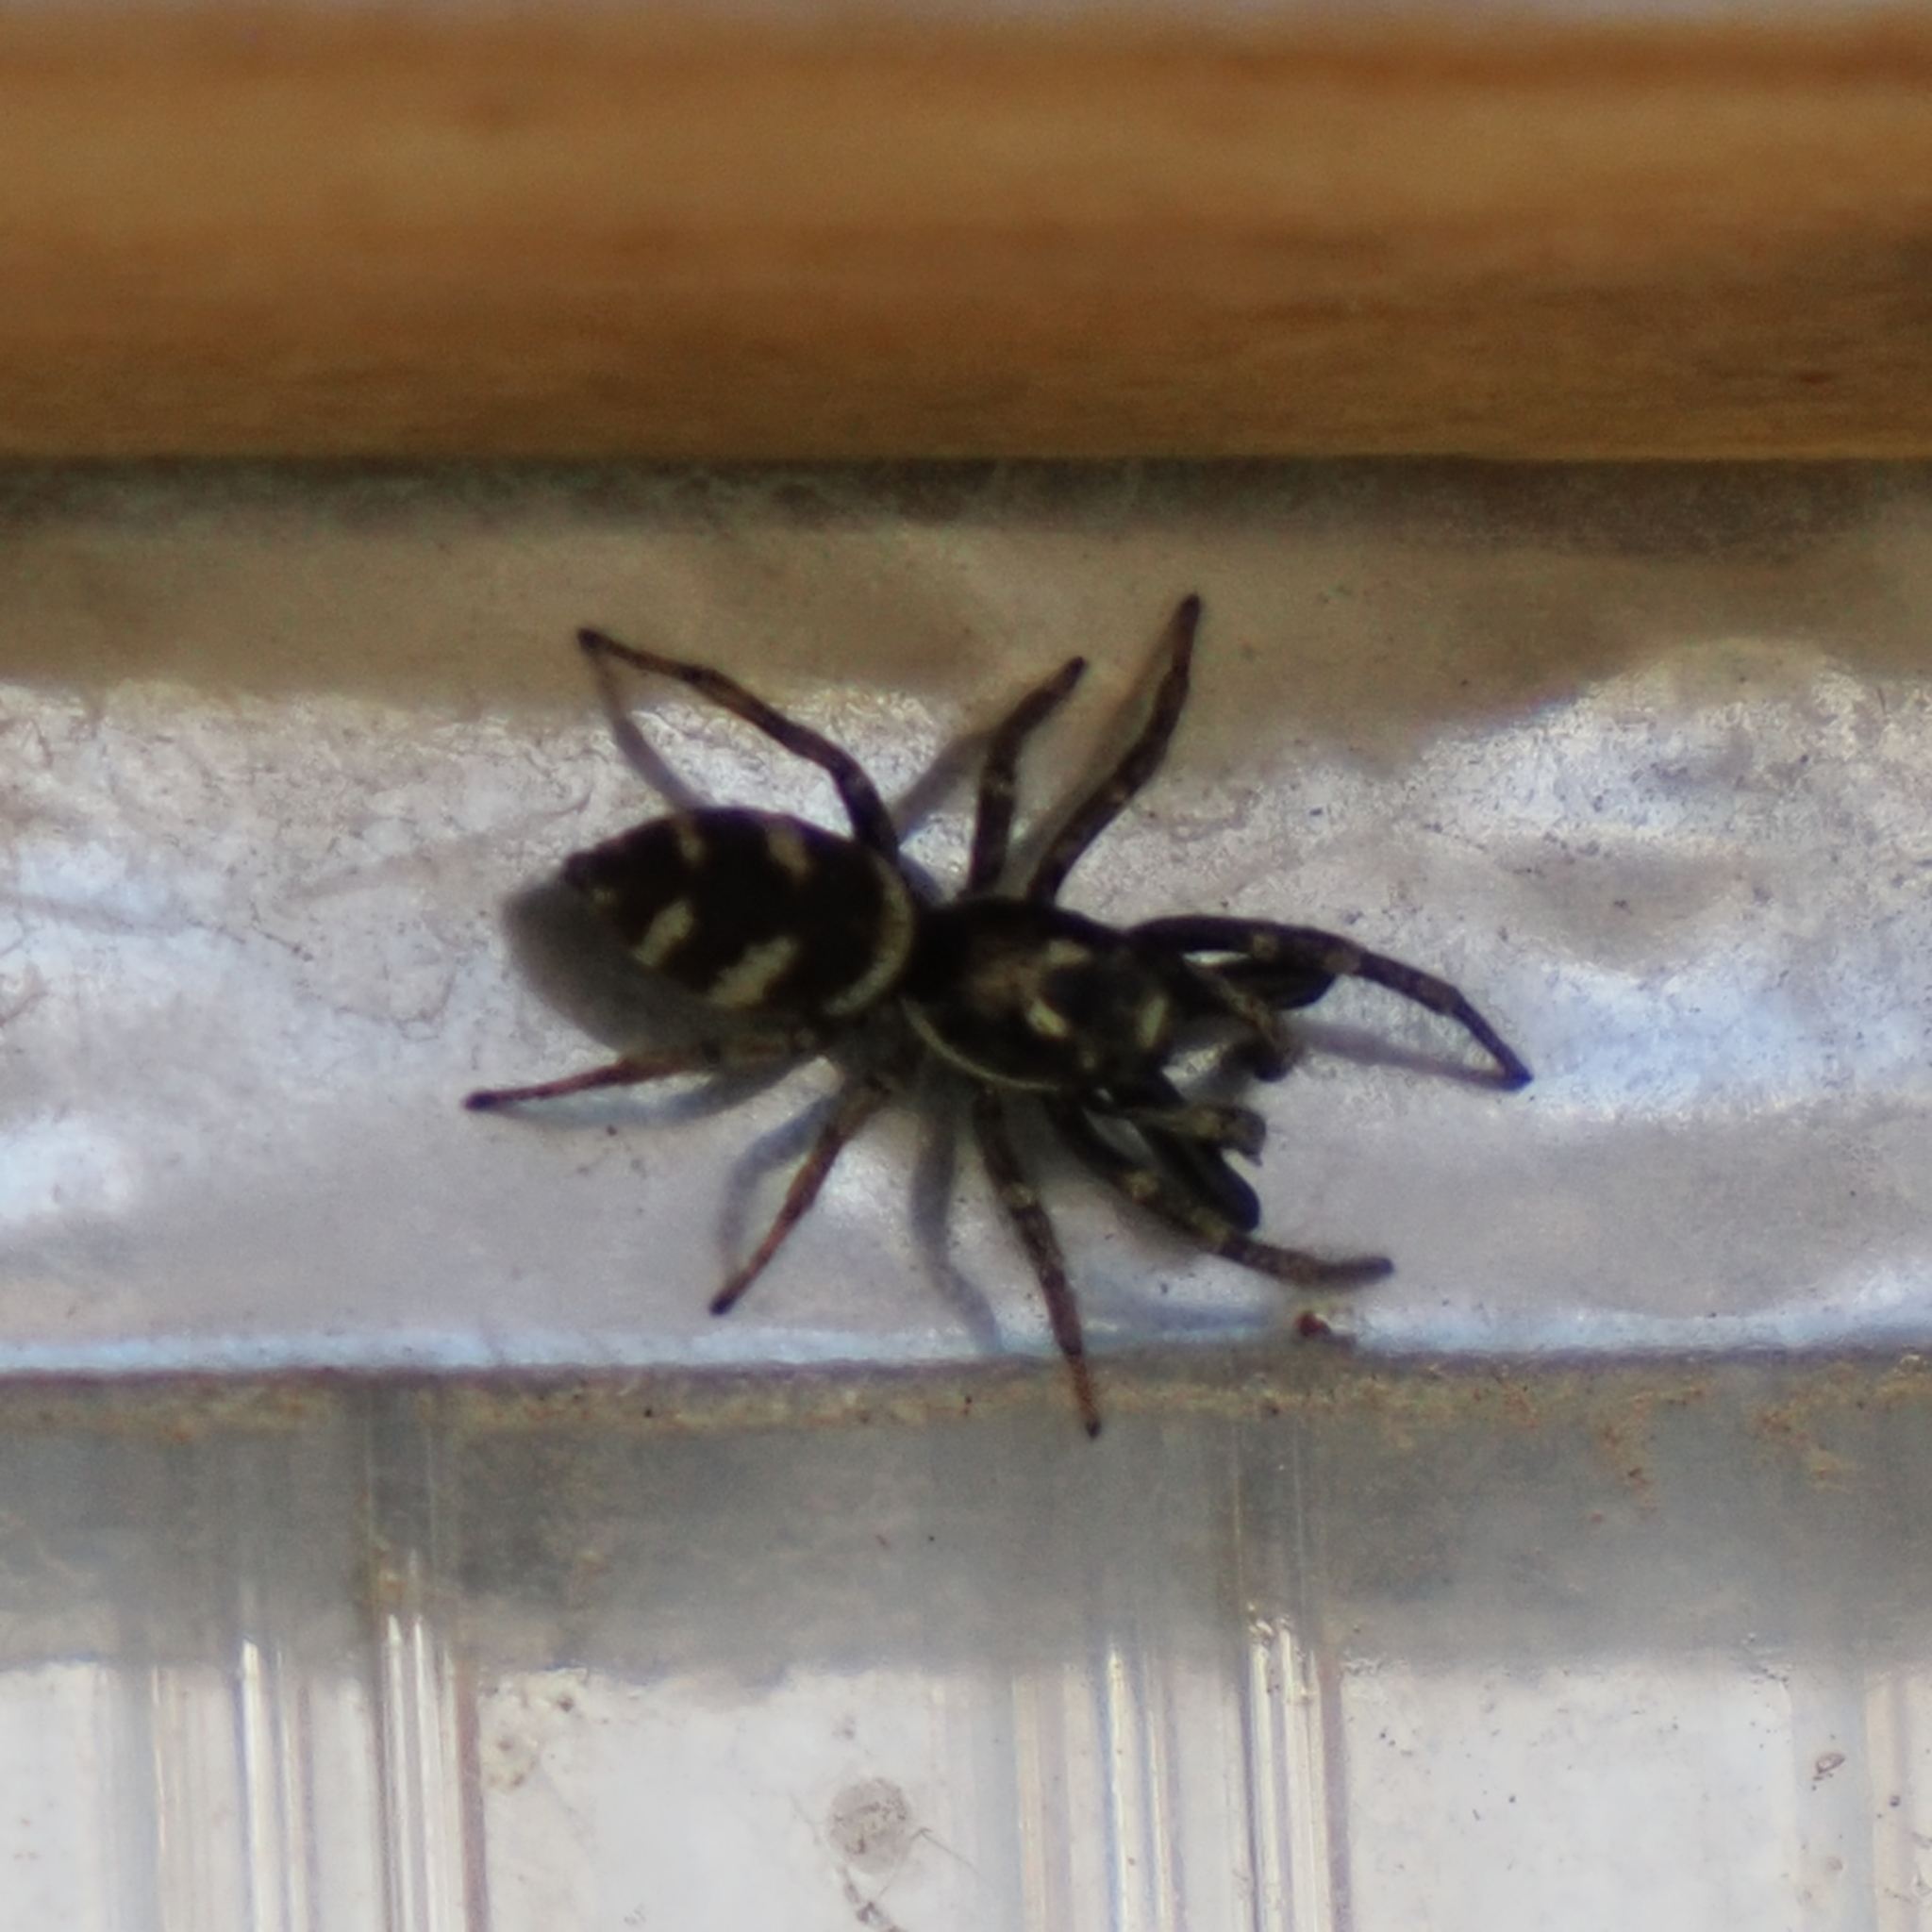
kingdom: Animalia
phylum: Arthropoda
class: Arachnida
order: Araneae
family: Salticidae
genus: Salticus
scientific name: Salticus scenicus
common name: Zebra jumper
